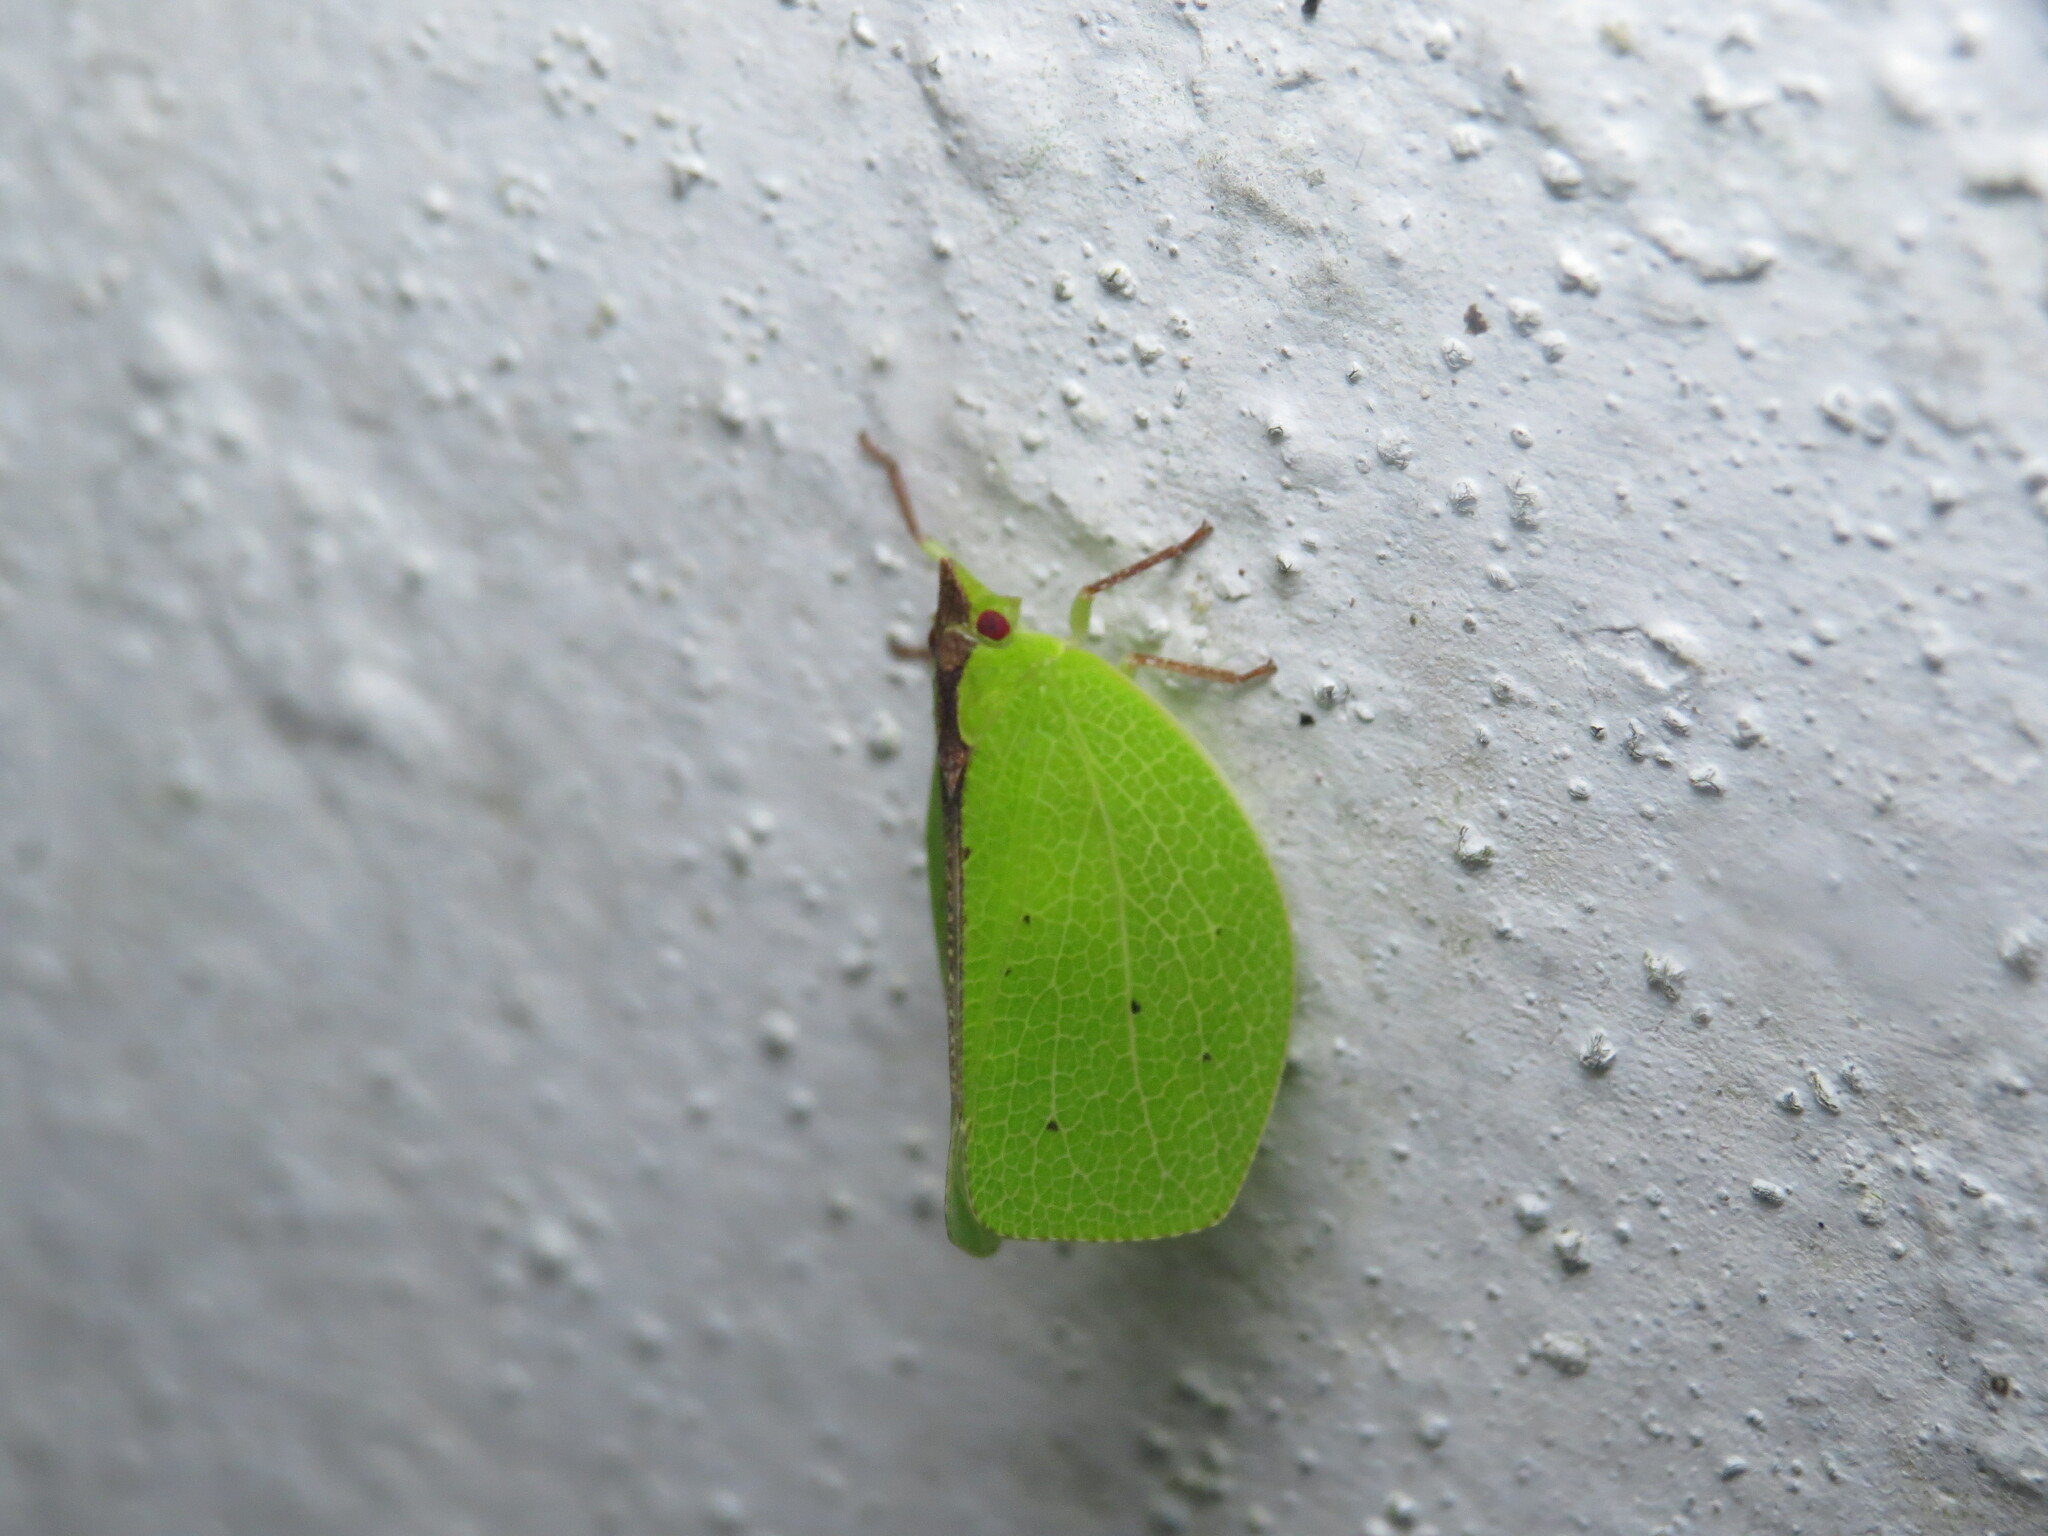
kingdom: Animalia
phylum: Arthropoda
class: Insecta
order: Hemiptera
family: Acanaloniidae
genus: Chlorochara
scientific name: Chlorochara vivida
